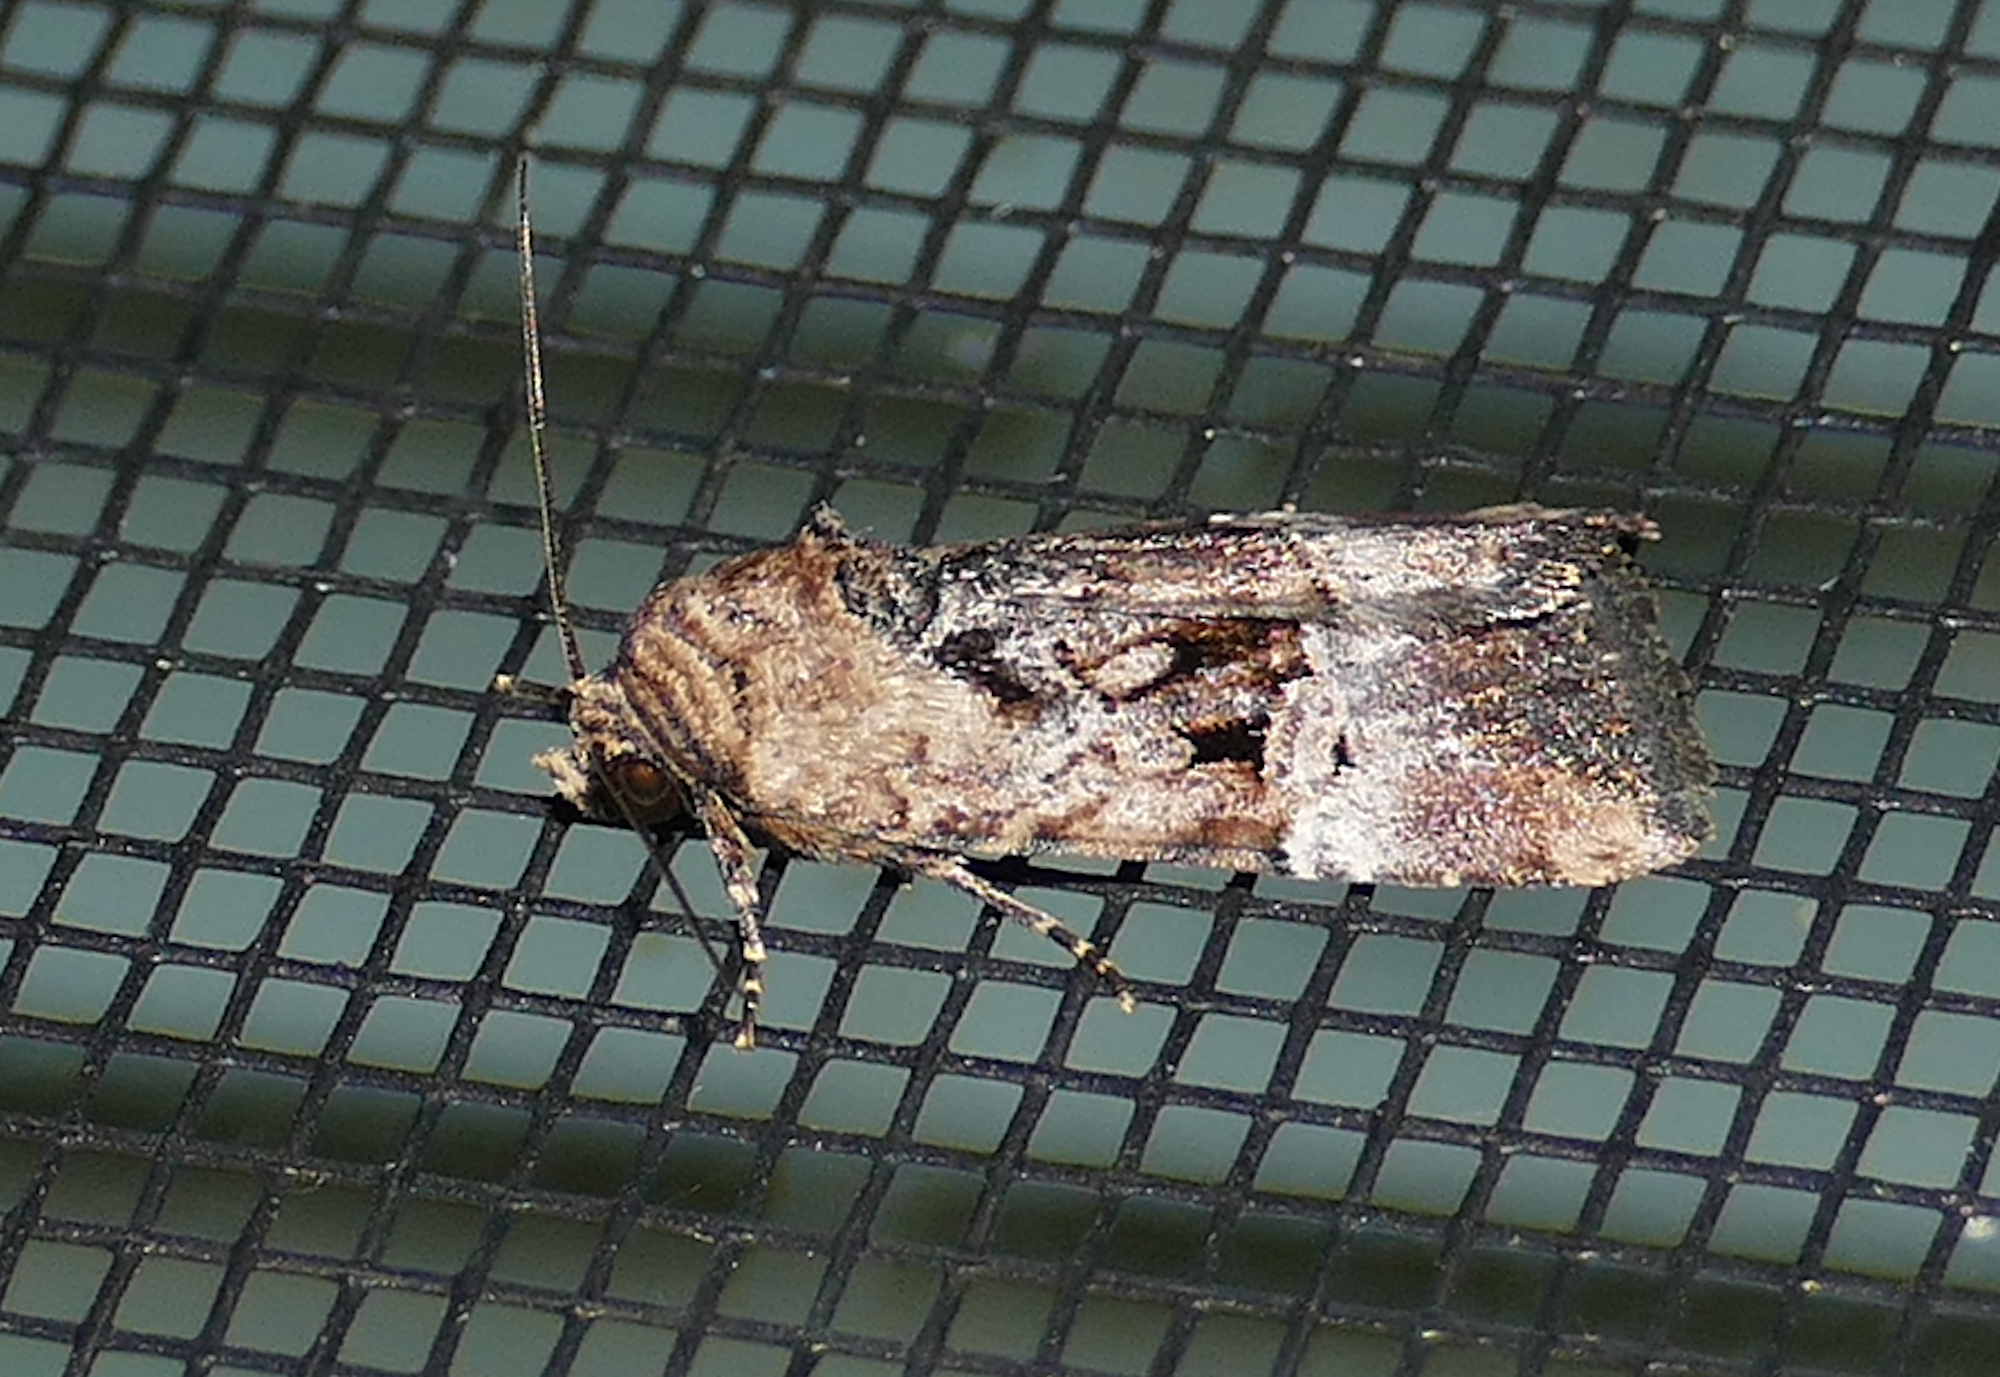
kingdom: Animalia
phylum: Arthropoda
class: Insecta
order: Lepidoptera
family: Noctuidae
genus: Elaphria
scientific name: Elaphria chalcedonia
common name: Chalcedony midget
